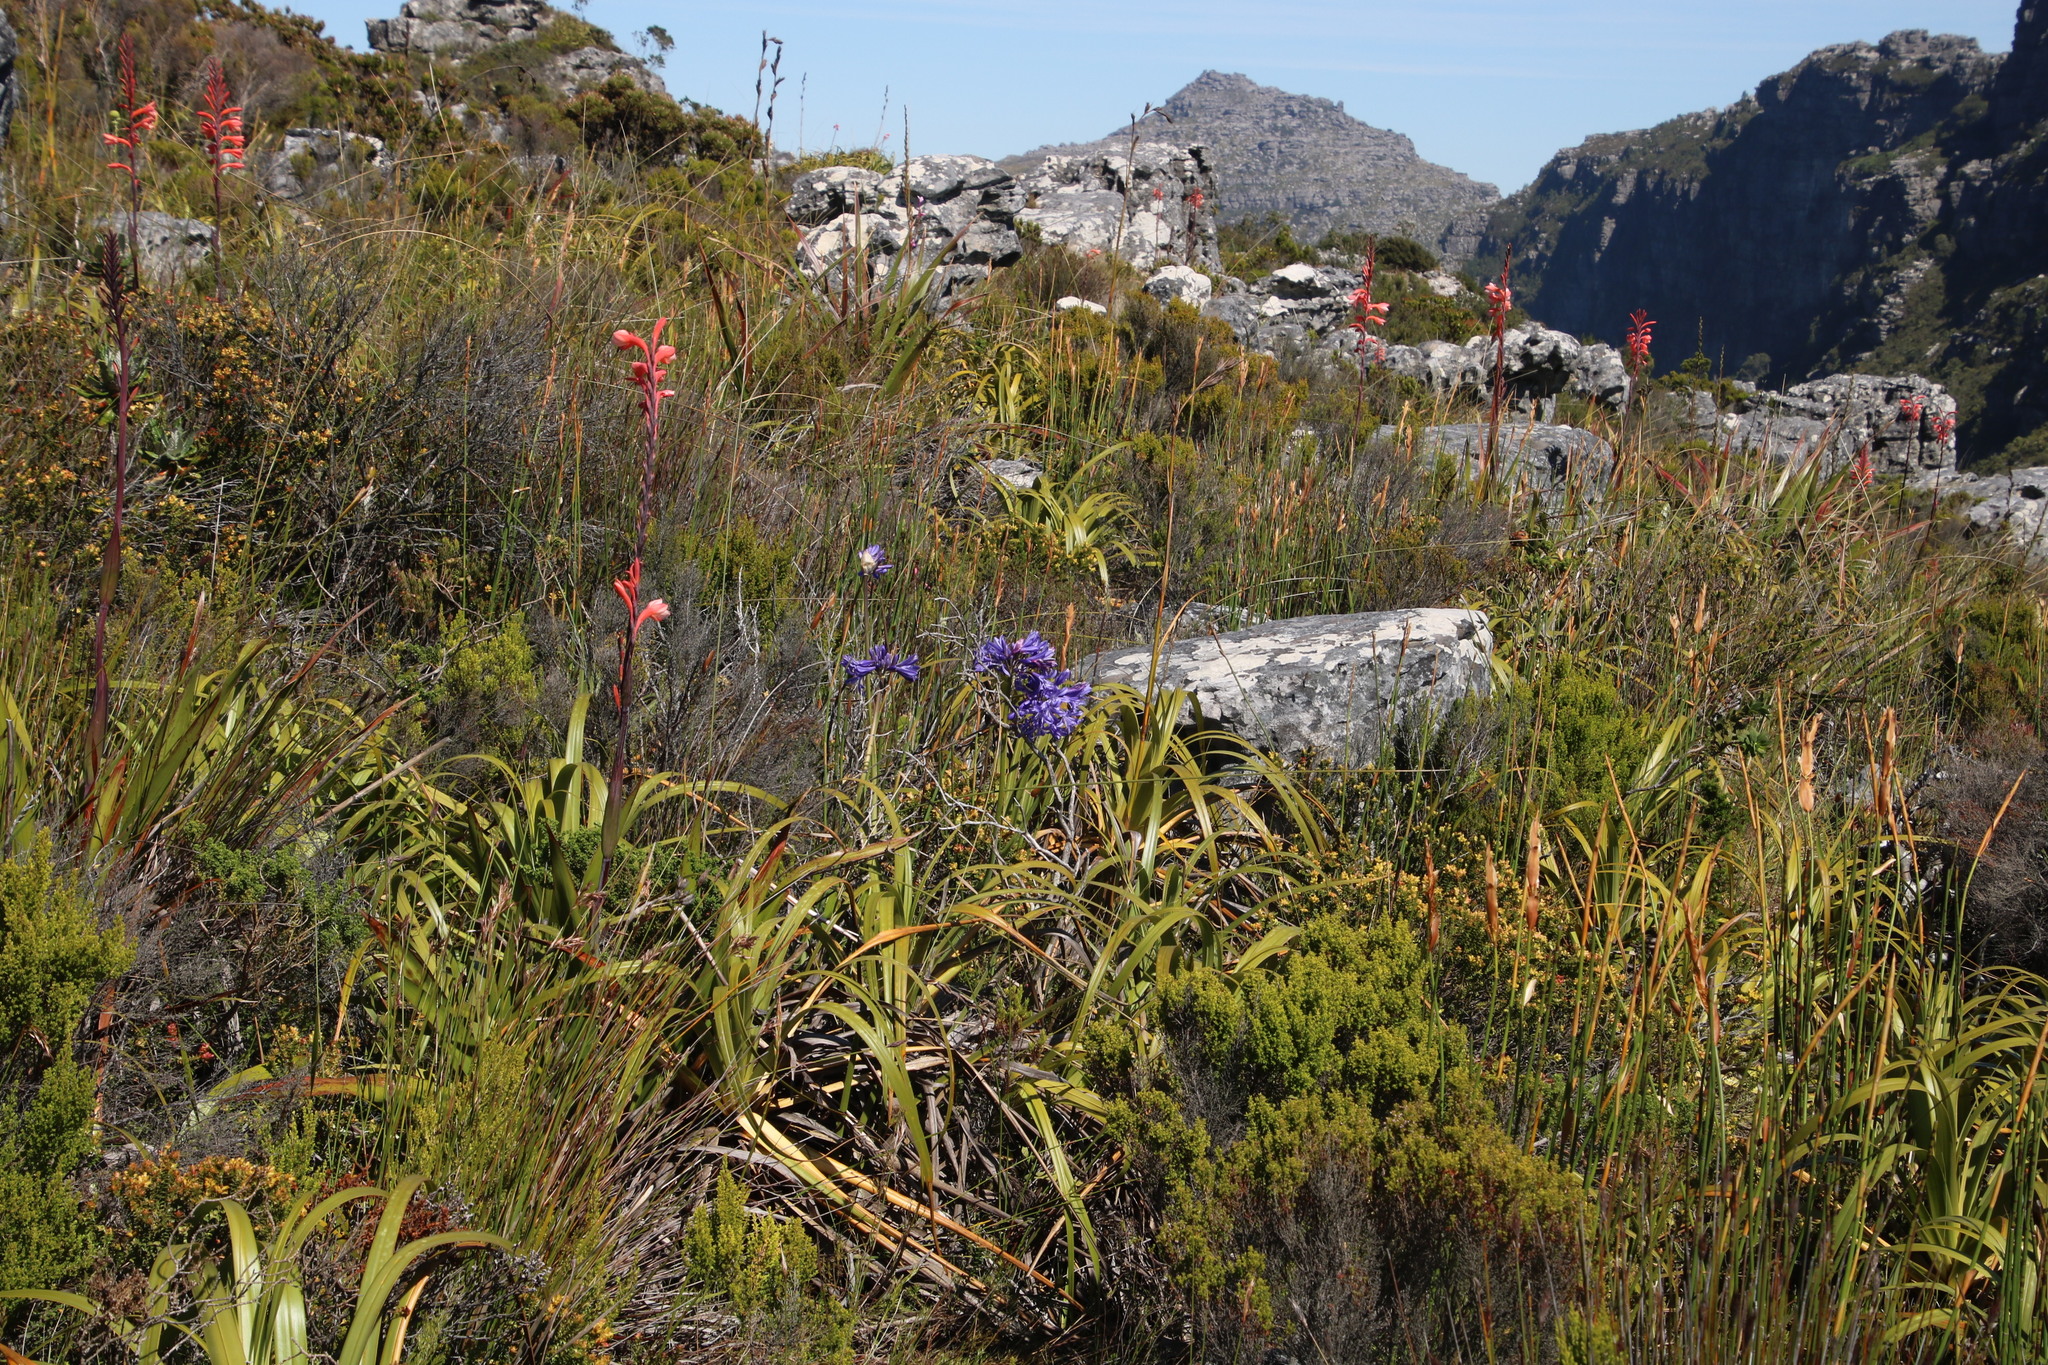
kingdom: Plantae
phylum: Tracheophyta
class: Liliopsida
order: Asparagales
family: Amaryllidaceae
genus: Agapanthus
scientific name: Agapanthus africanus
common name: Lily-of-the-nile
